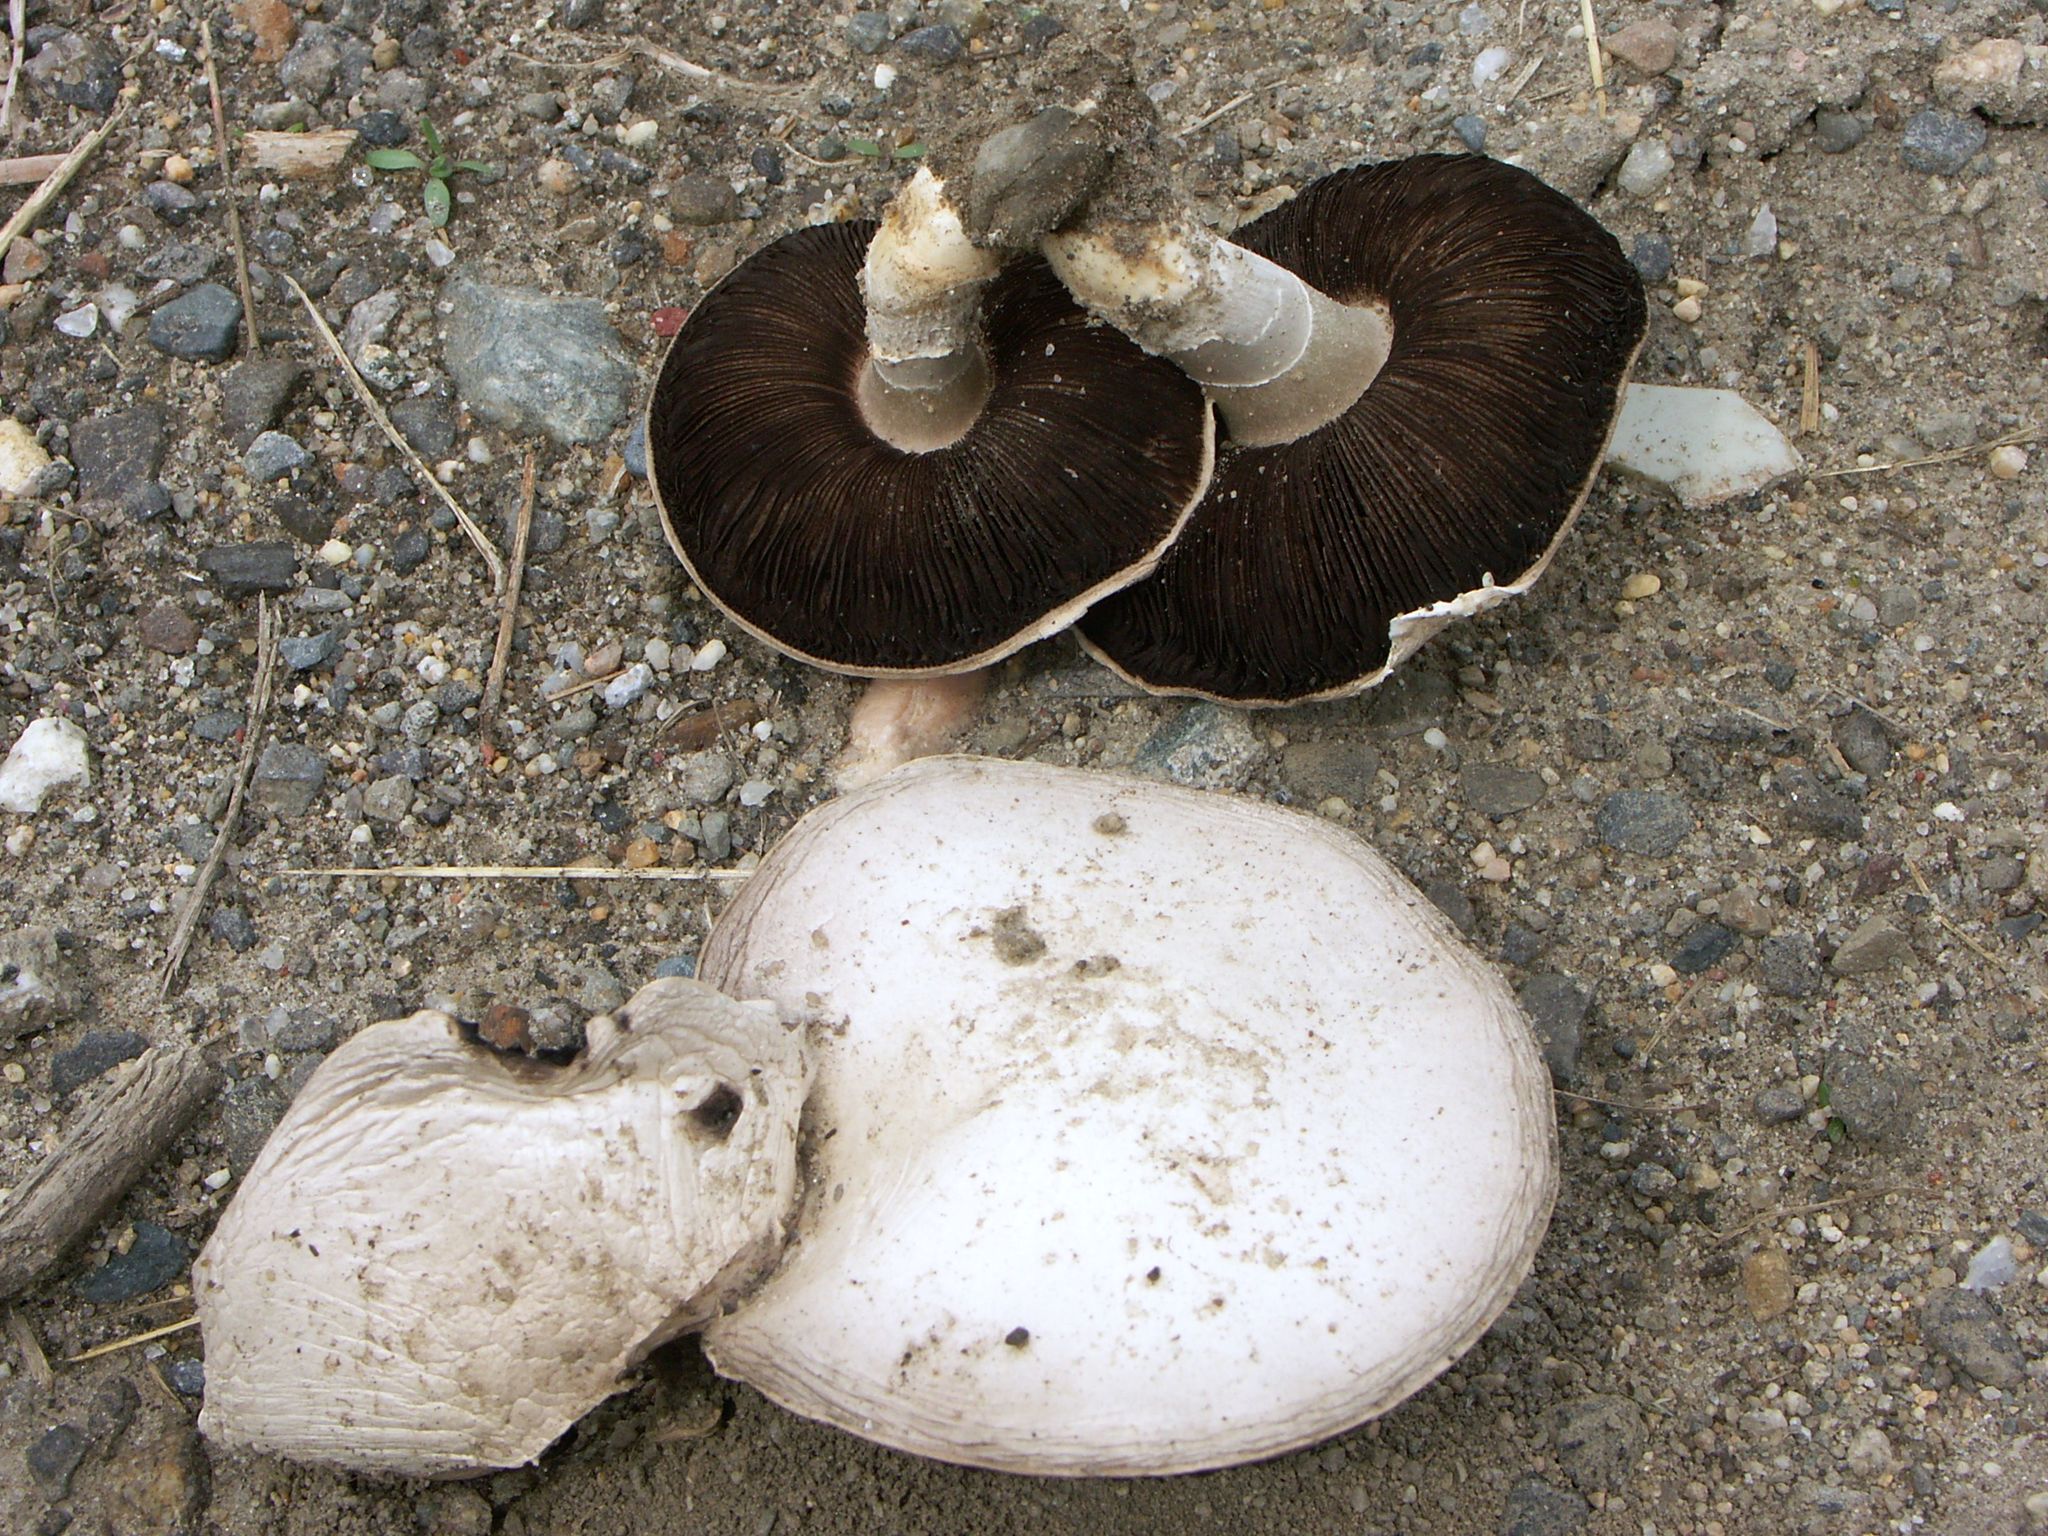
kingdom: Fungi
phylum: Basidiomycota
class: Agaricomycetes
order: Agaricales
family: Agaricaceae
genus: Agaricus
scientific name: Agaricus bitorquis
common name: Pavement mushroom
